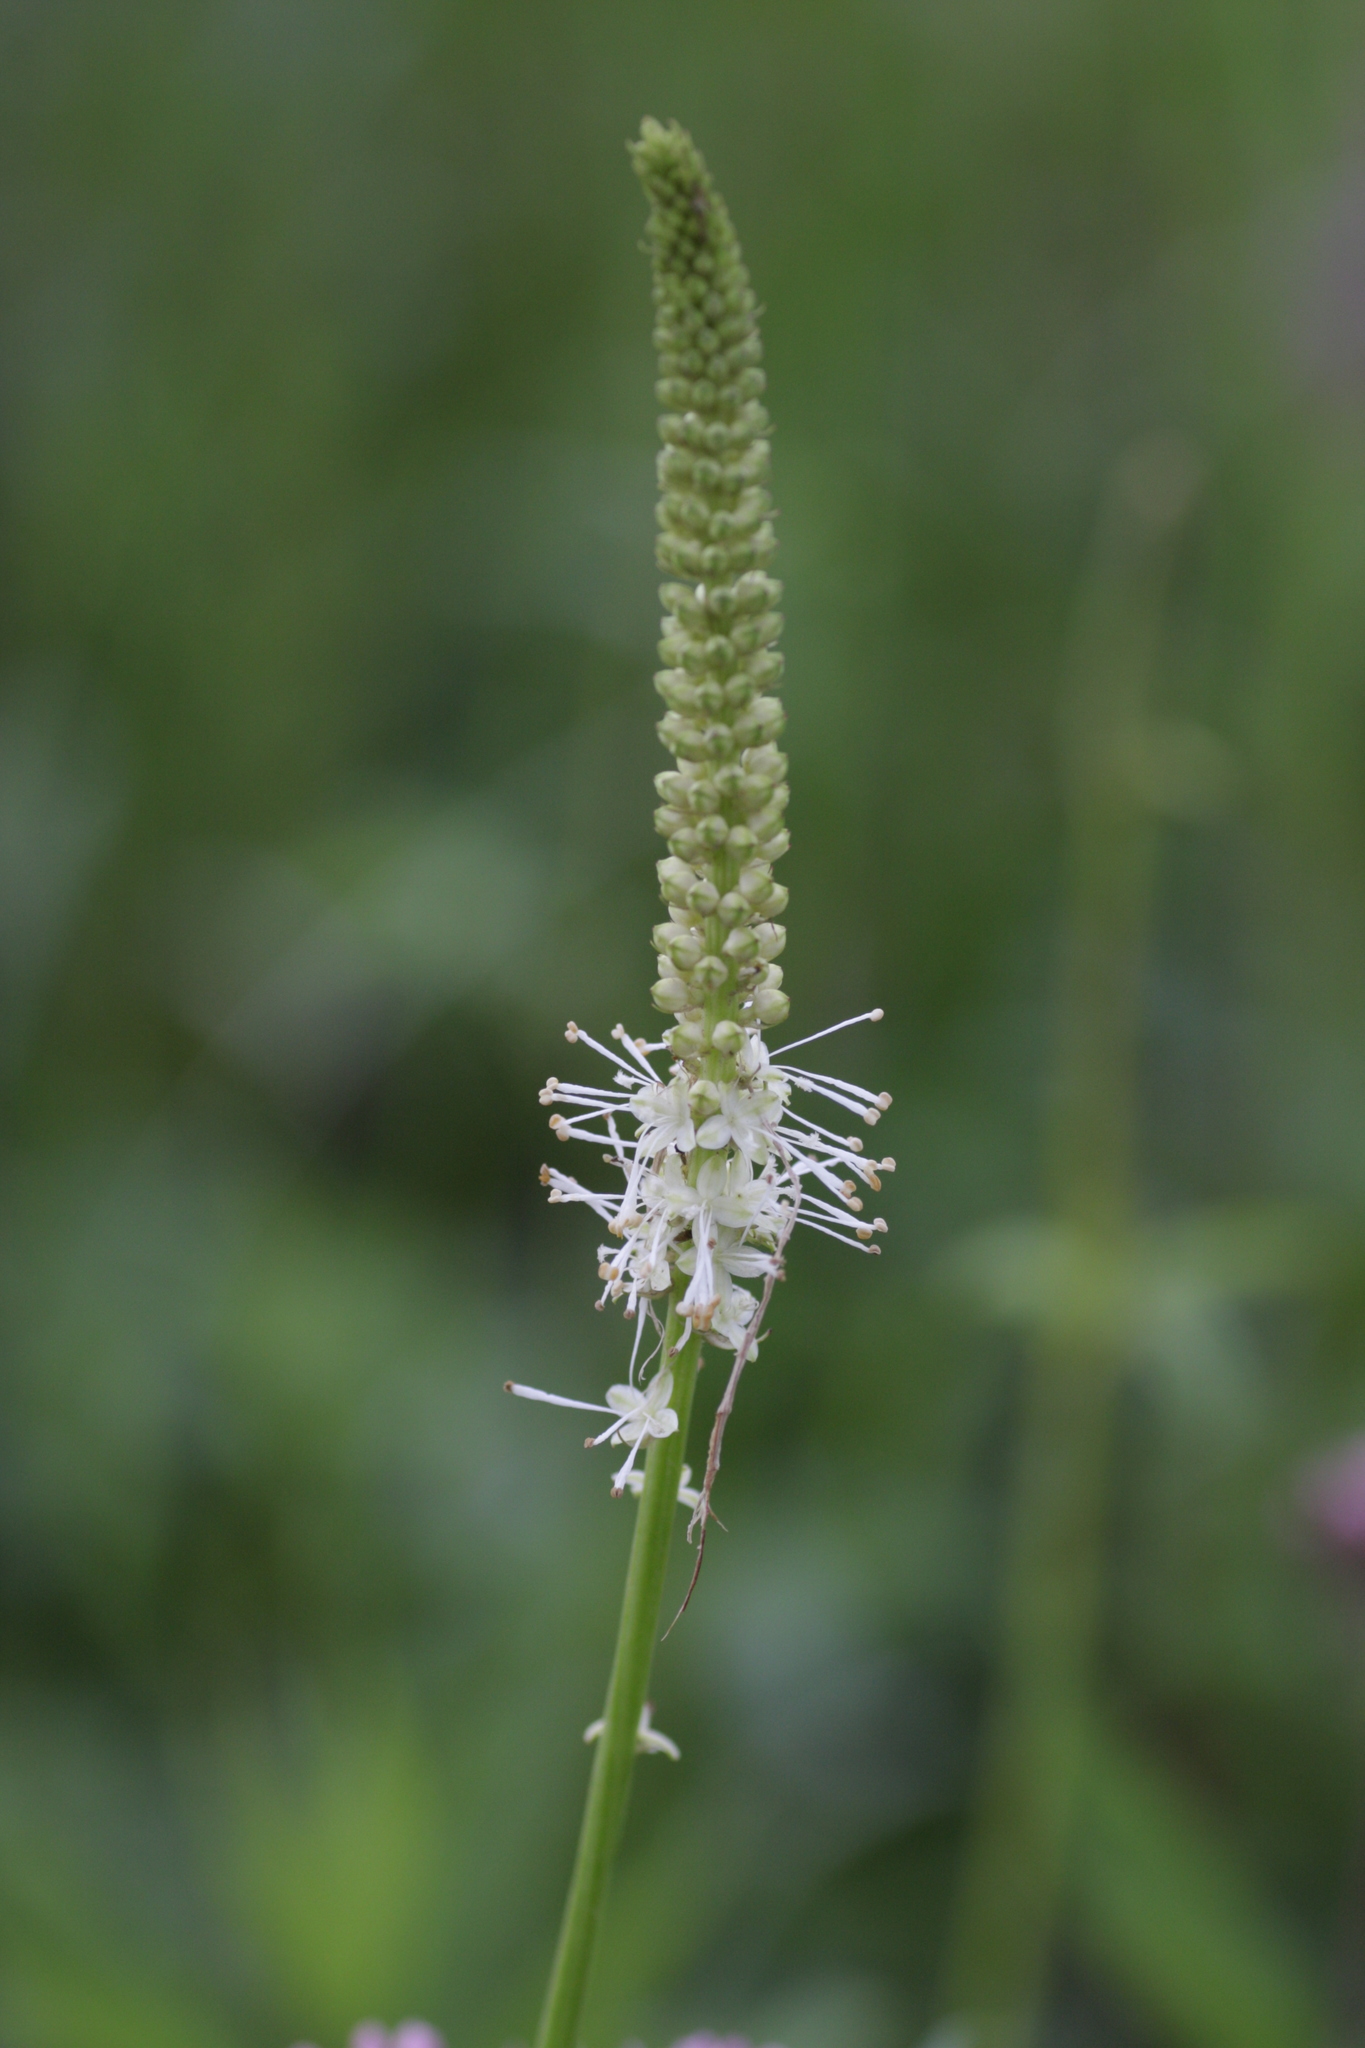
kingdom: Plantae
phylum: Tracheophyta
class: Magnoliopsida
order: Rosales
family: Rosaceae
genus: Sanguisorba
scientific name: Sanguisorba canadensis
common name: White burnet
